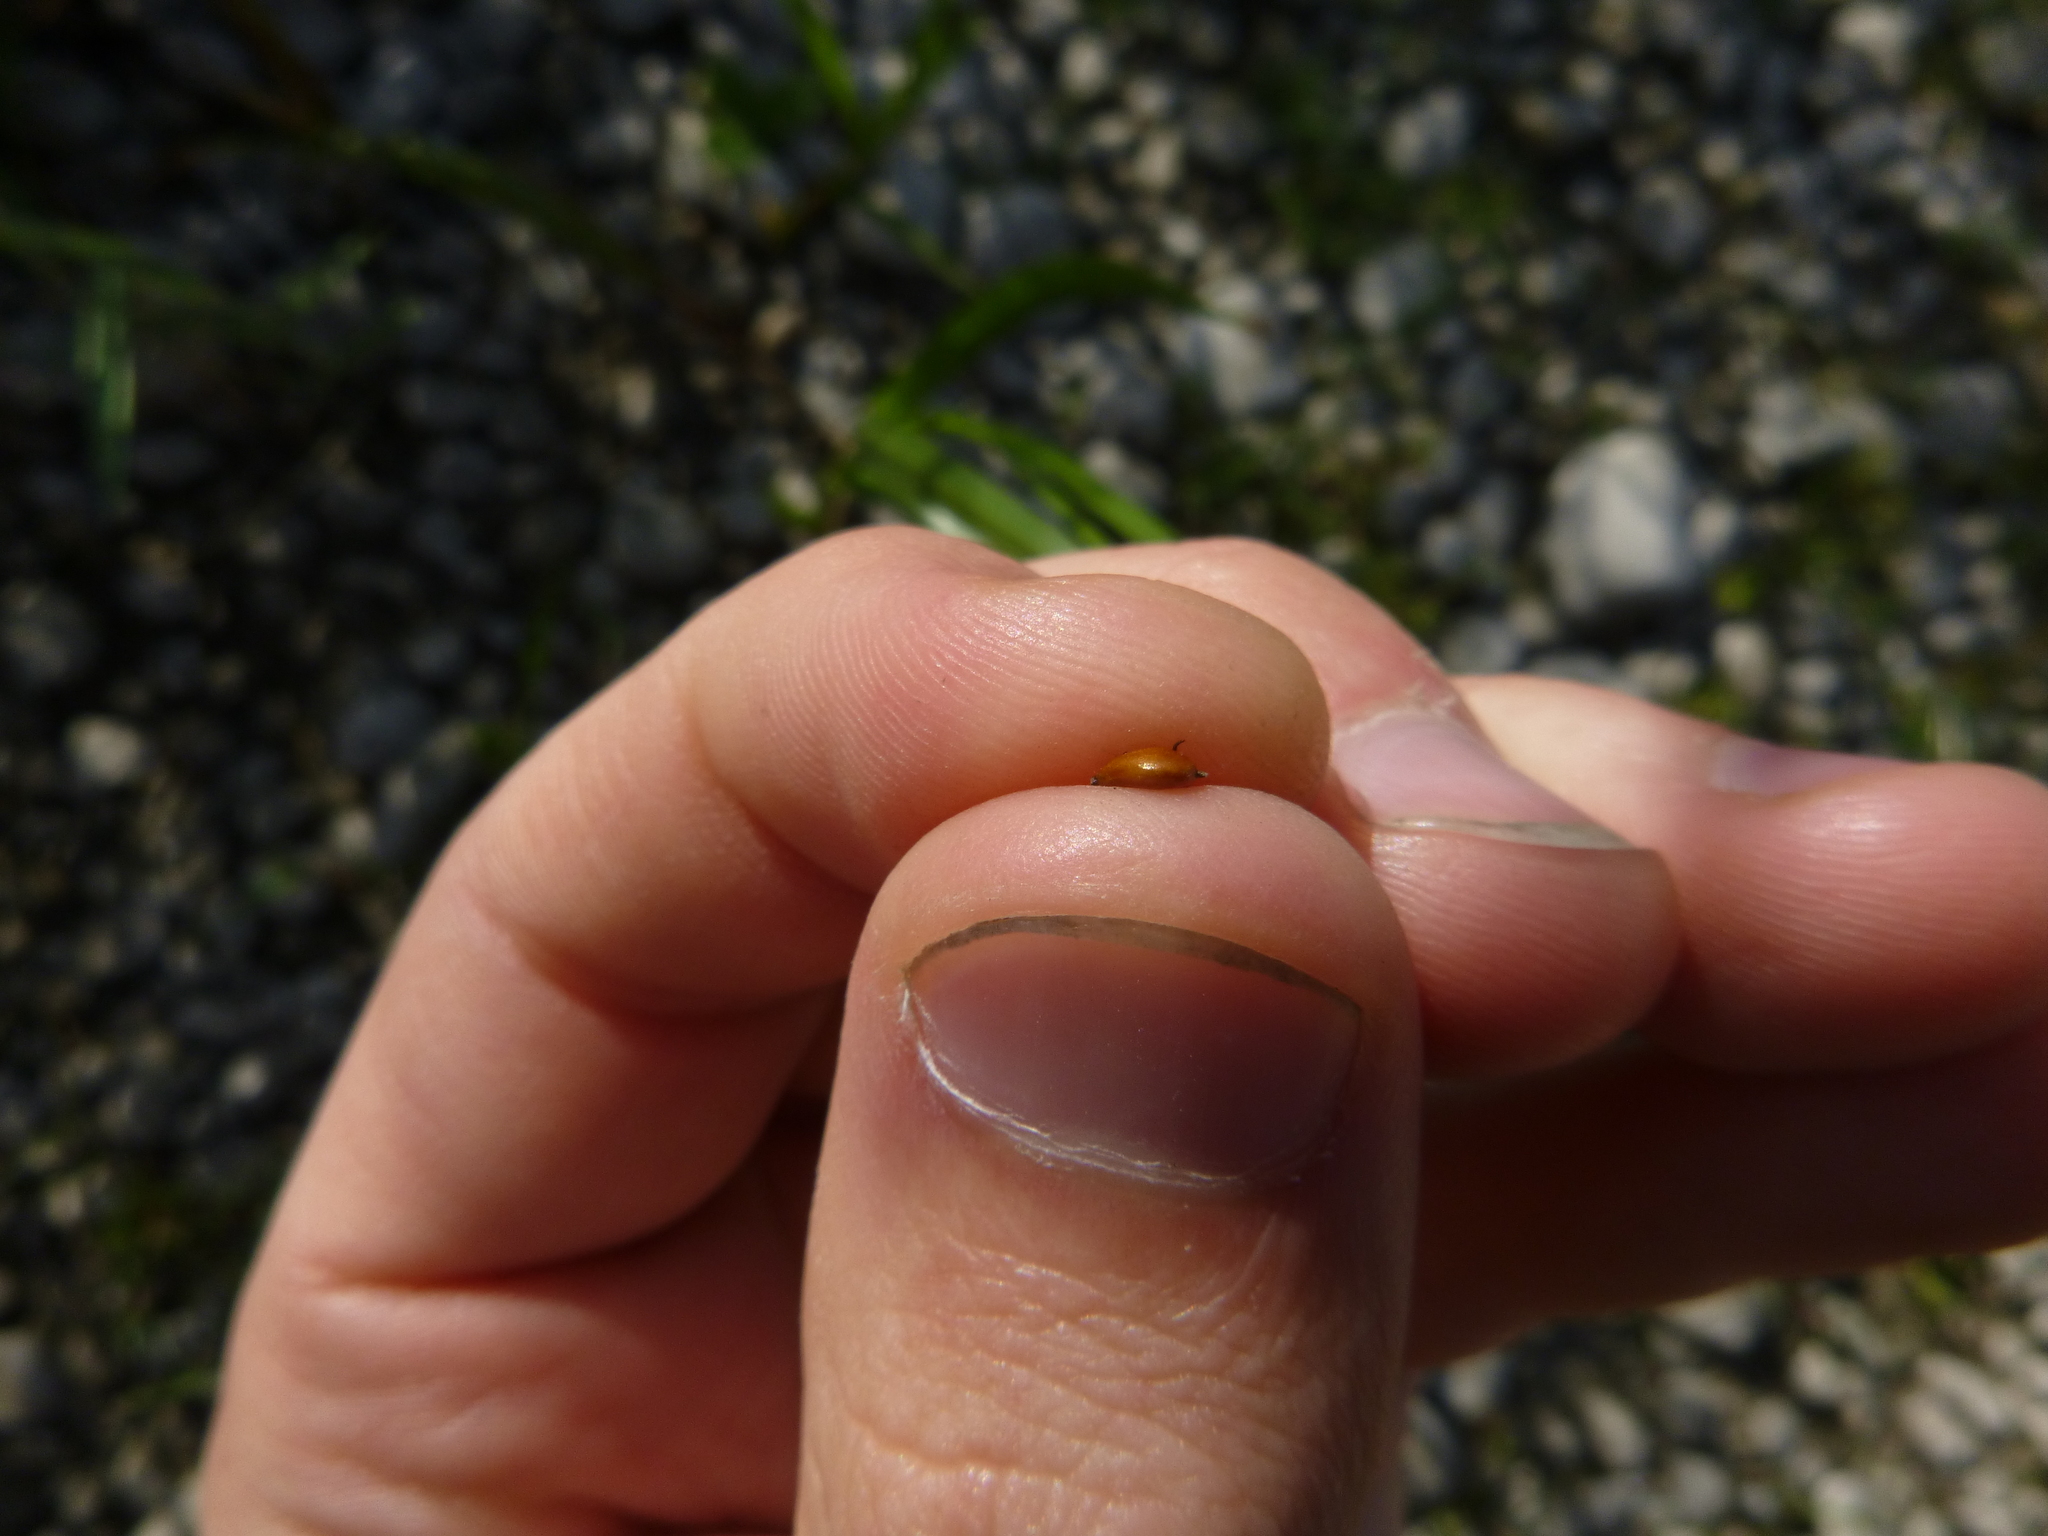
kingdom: Plantae
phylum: Tracheophyta
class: Liliopsida
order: Poales
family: Cyperaceae
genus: Bolboschoenus
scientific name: Bolboschoenus maritimus
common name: Sea club-rush
